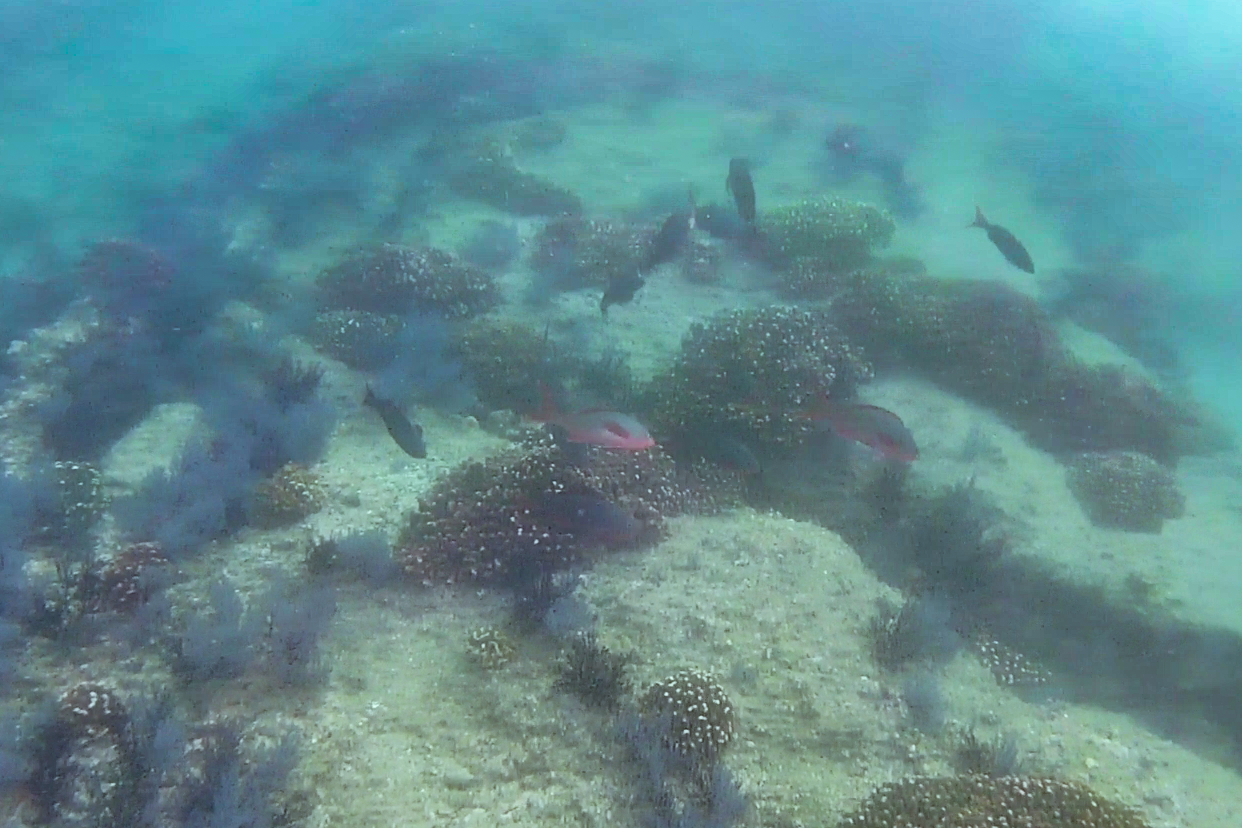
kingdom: Animalia
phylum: Chordata
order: Perciformes
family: Serranidae
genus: Paranthias
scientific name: Paranthias colonus
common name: Pacific creole-fish
